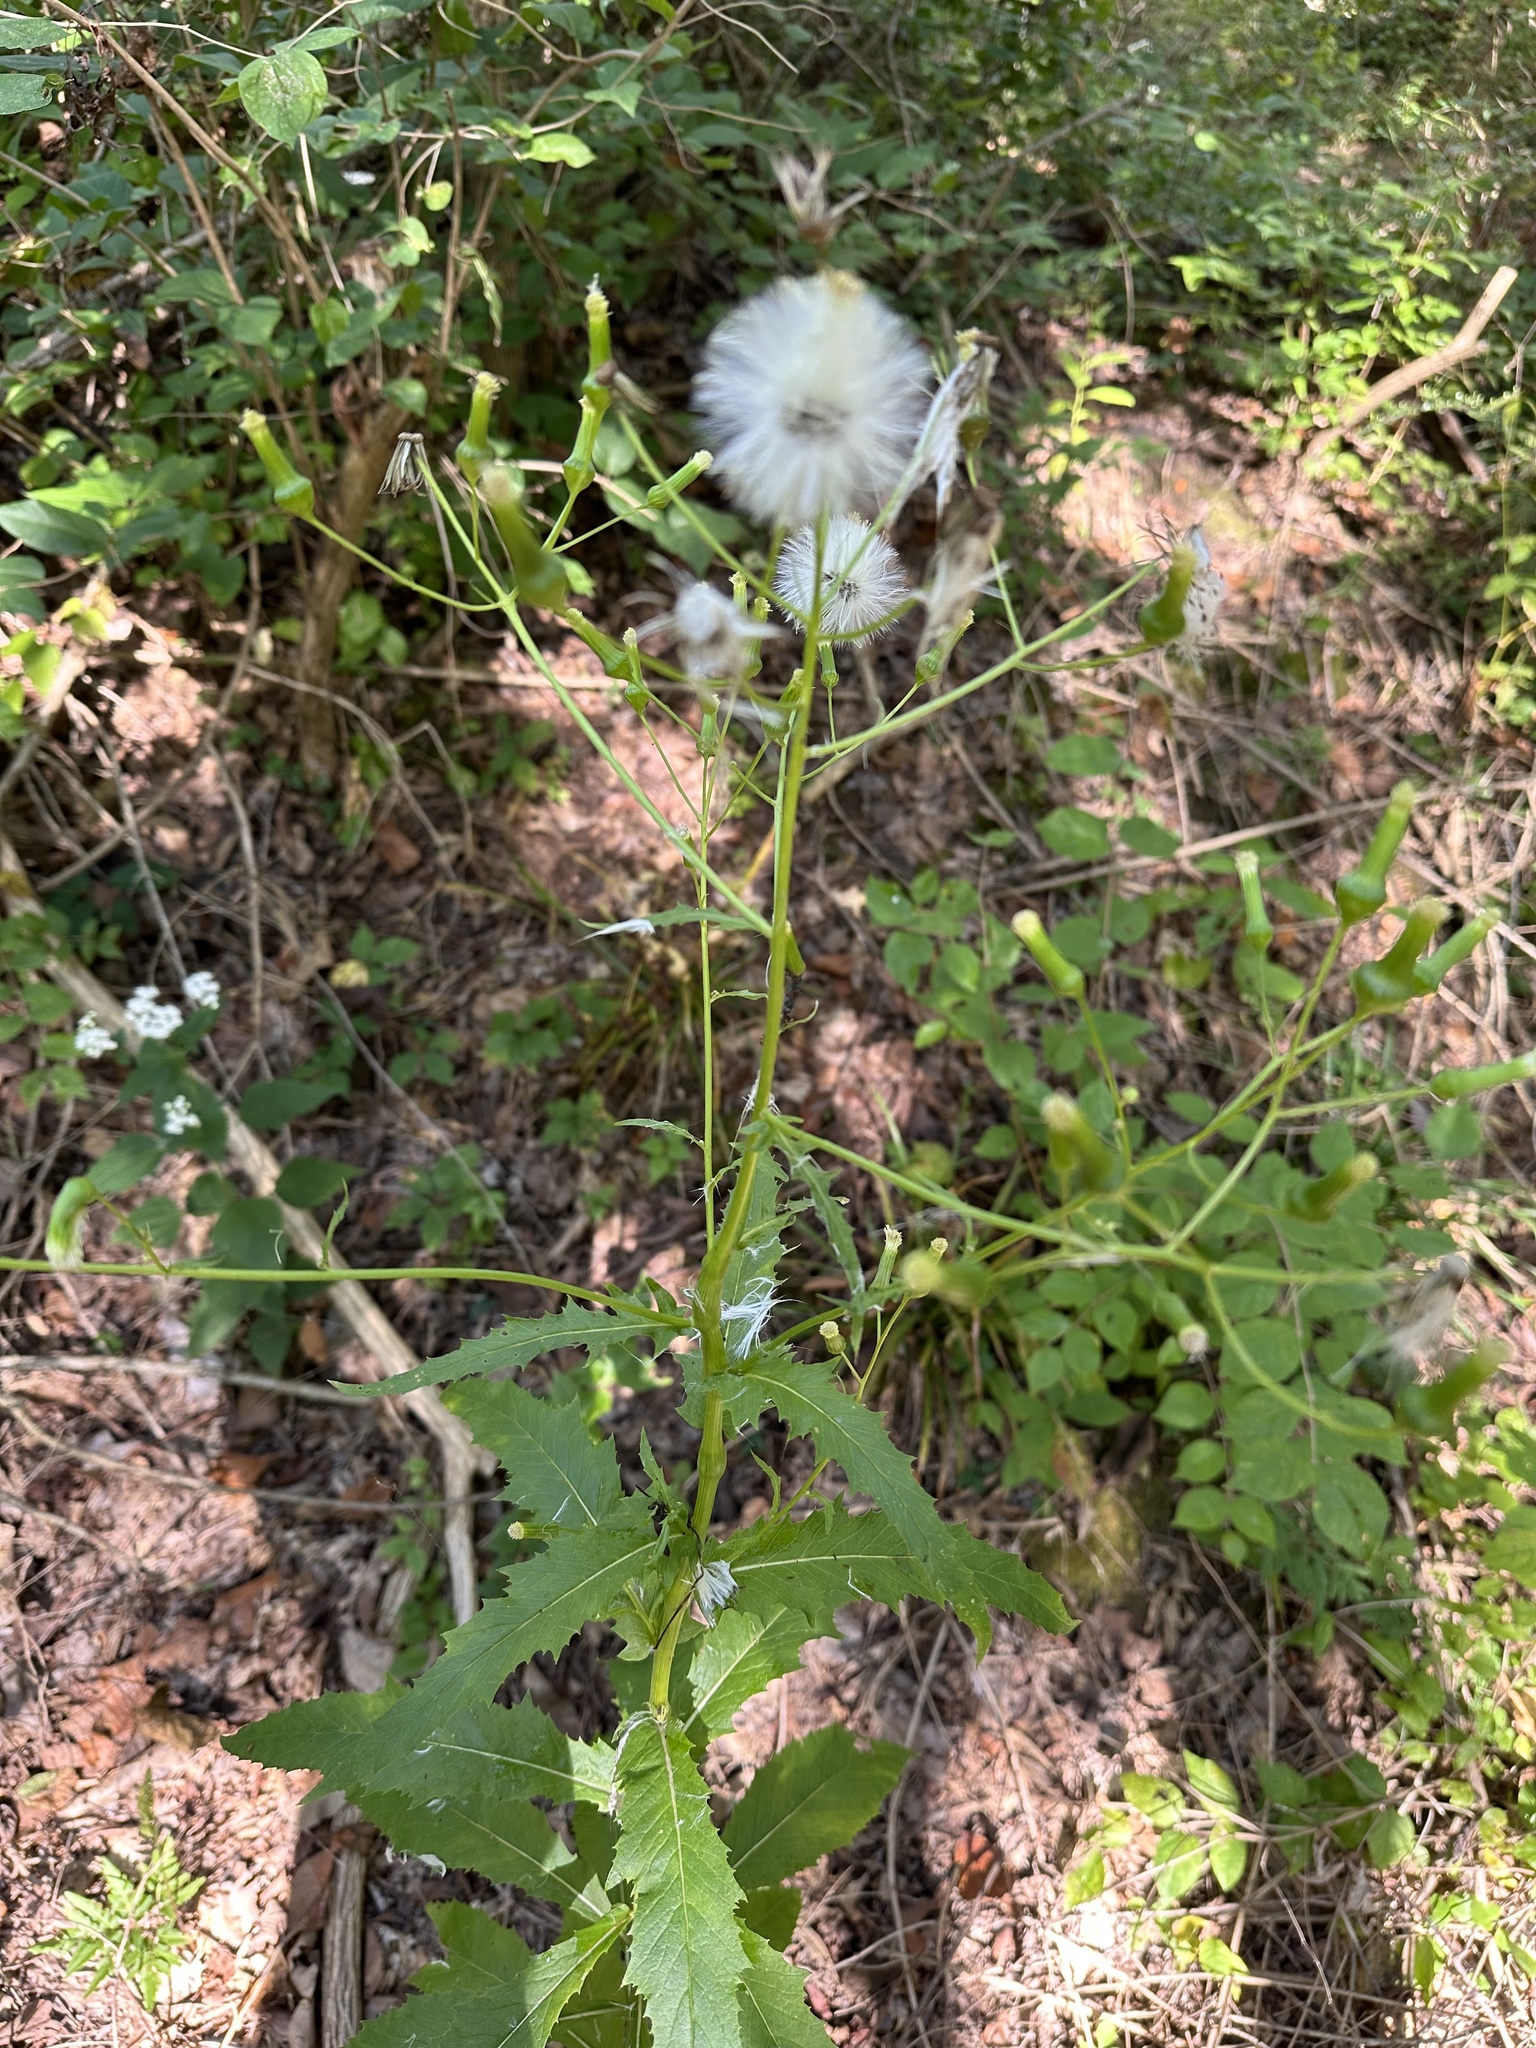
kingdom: Plantae
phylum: Tracheophyta
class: Magnoliopsida
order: Asterales
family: Asteraceae
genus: Erechtites
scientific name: Erechtites hieraciifolius
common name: American burnweed
